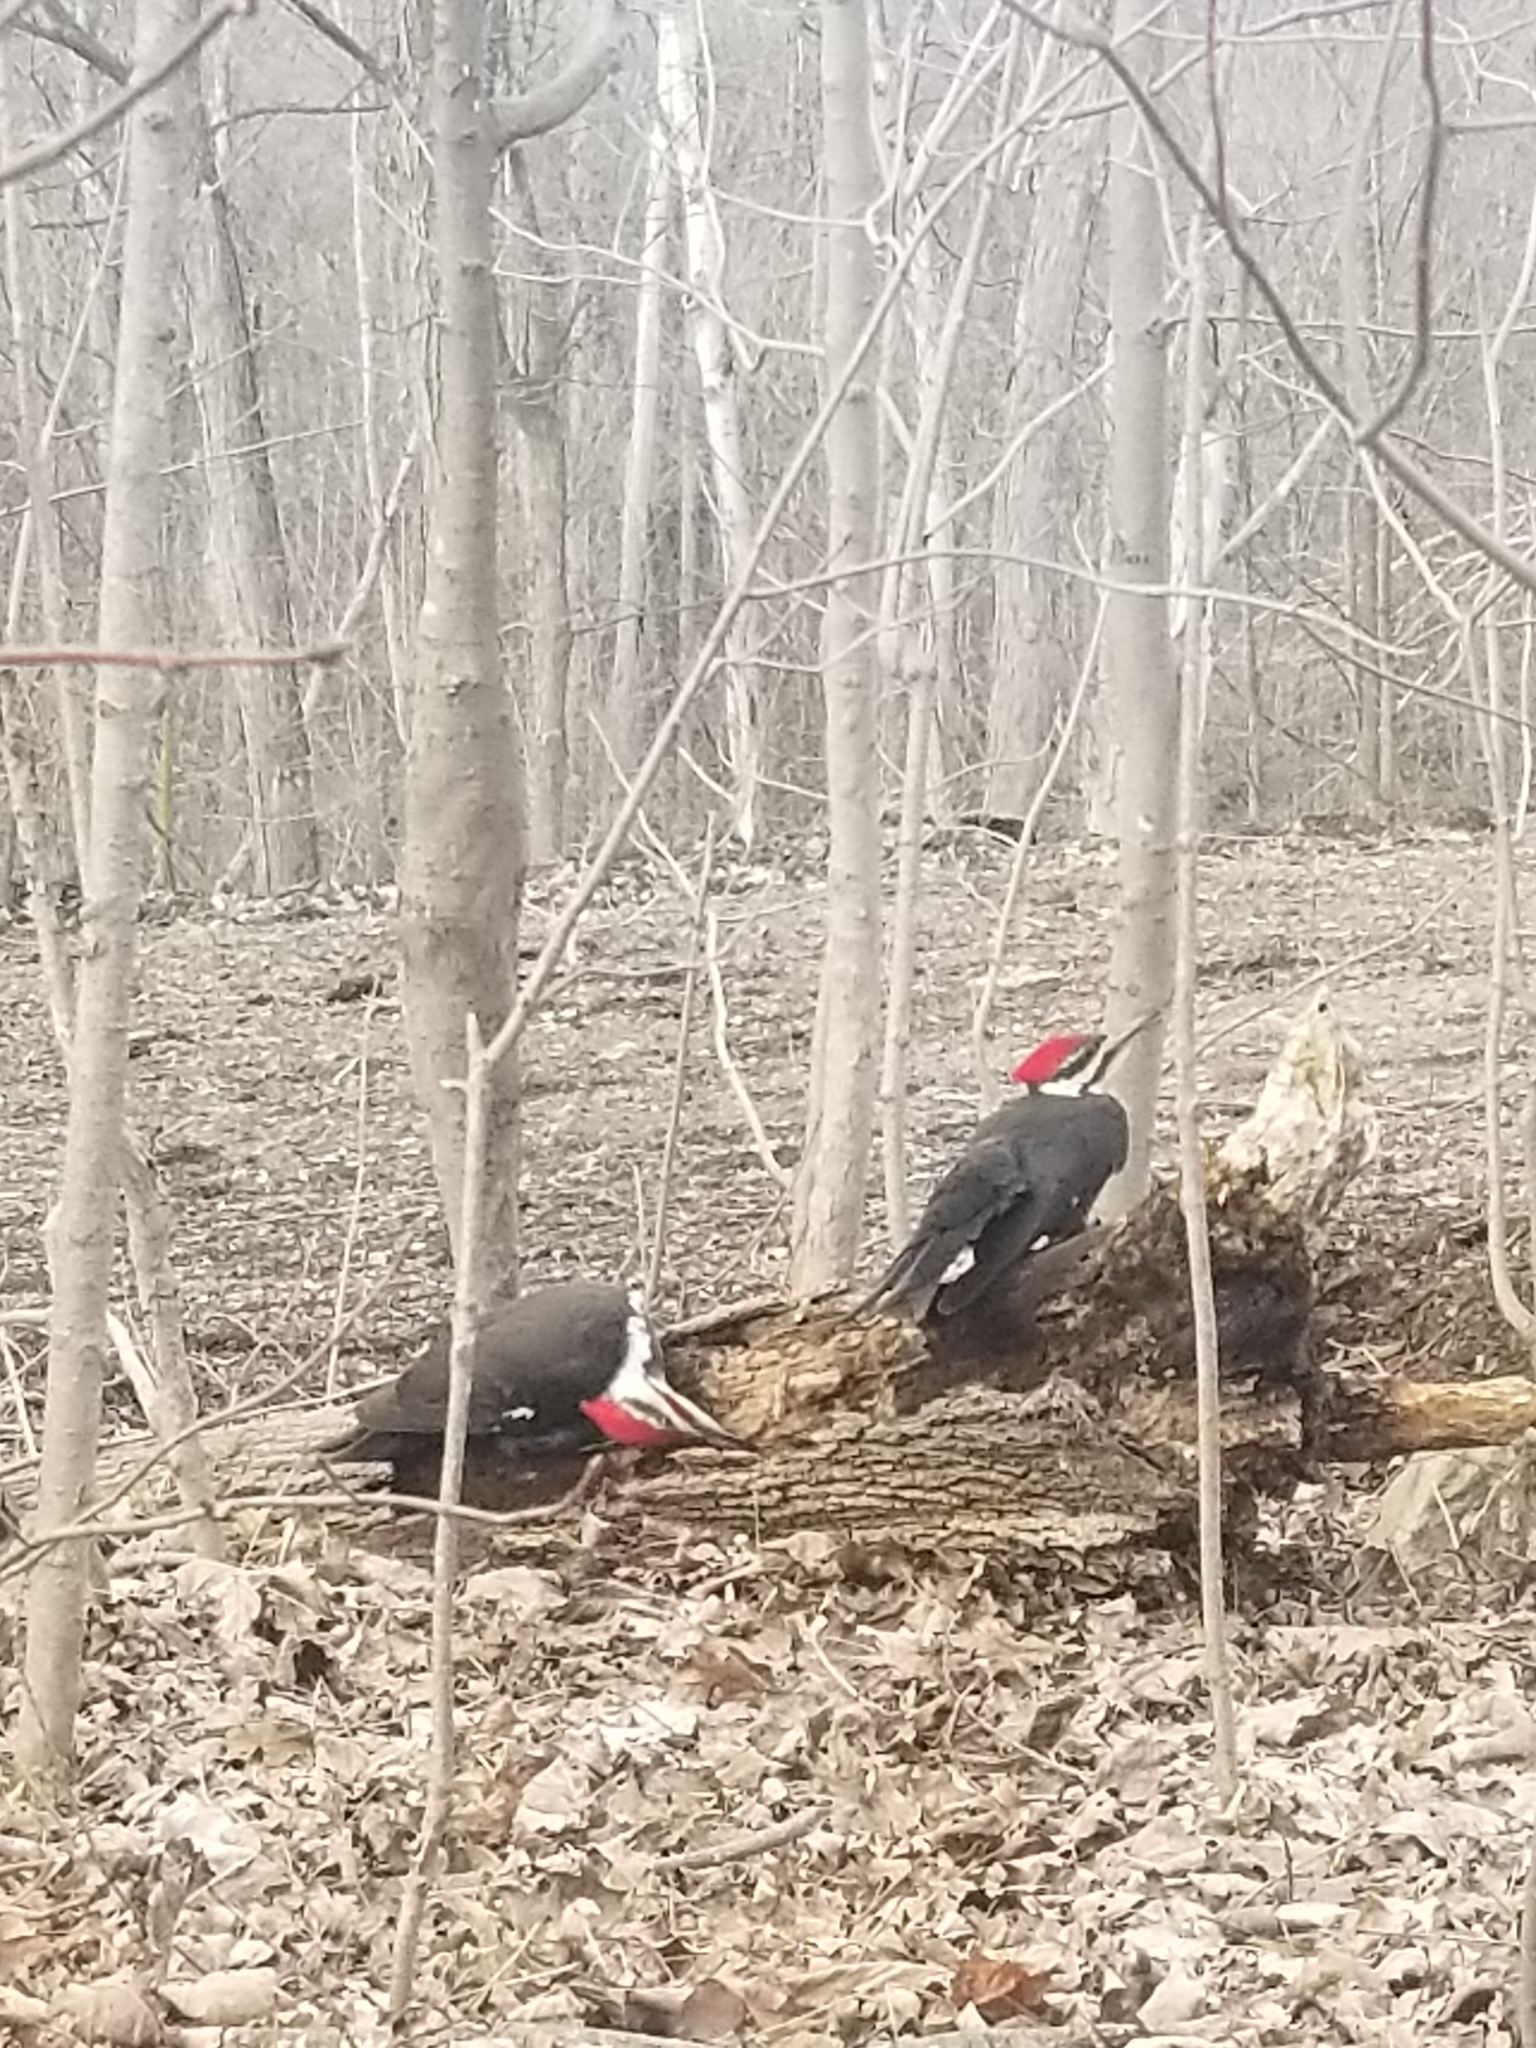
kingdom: Animalia
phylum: Chordata
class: Aves
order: Piciformes
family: Picidae
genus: Dryocopus
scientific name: Dryocopus pileatus
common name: Pileated woodpecker
